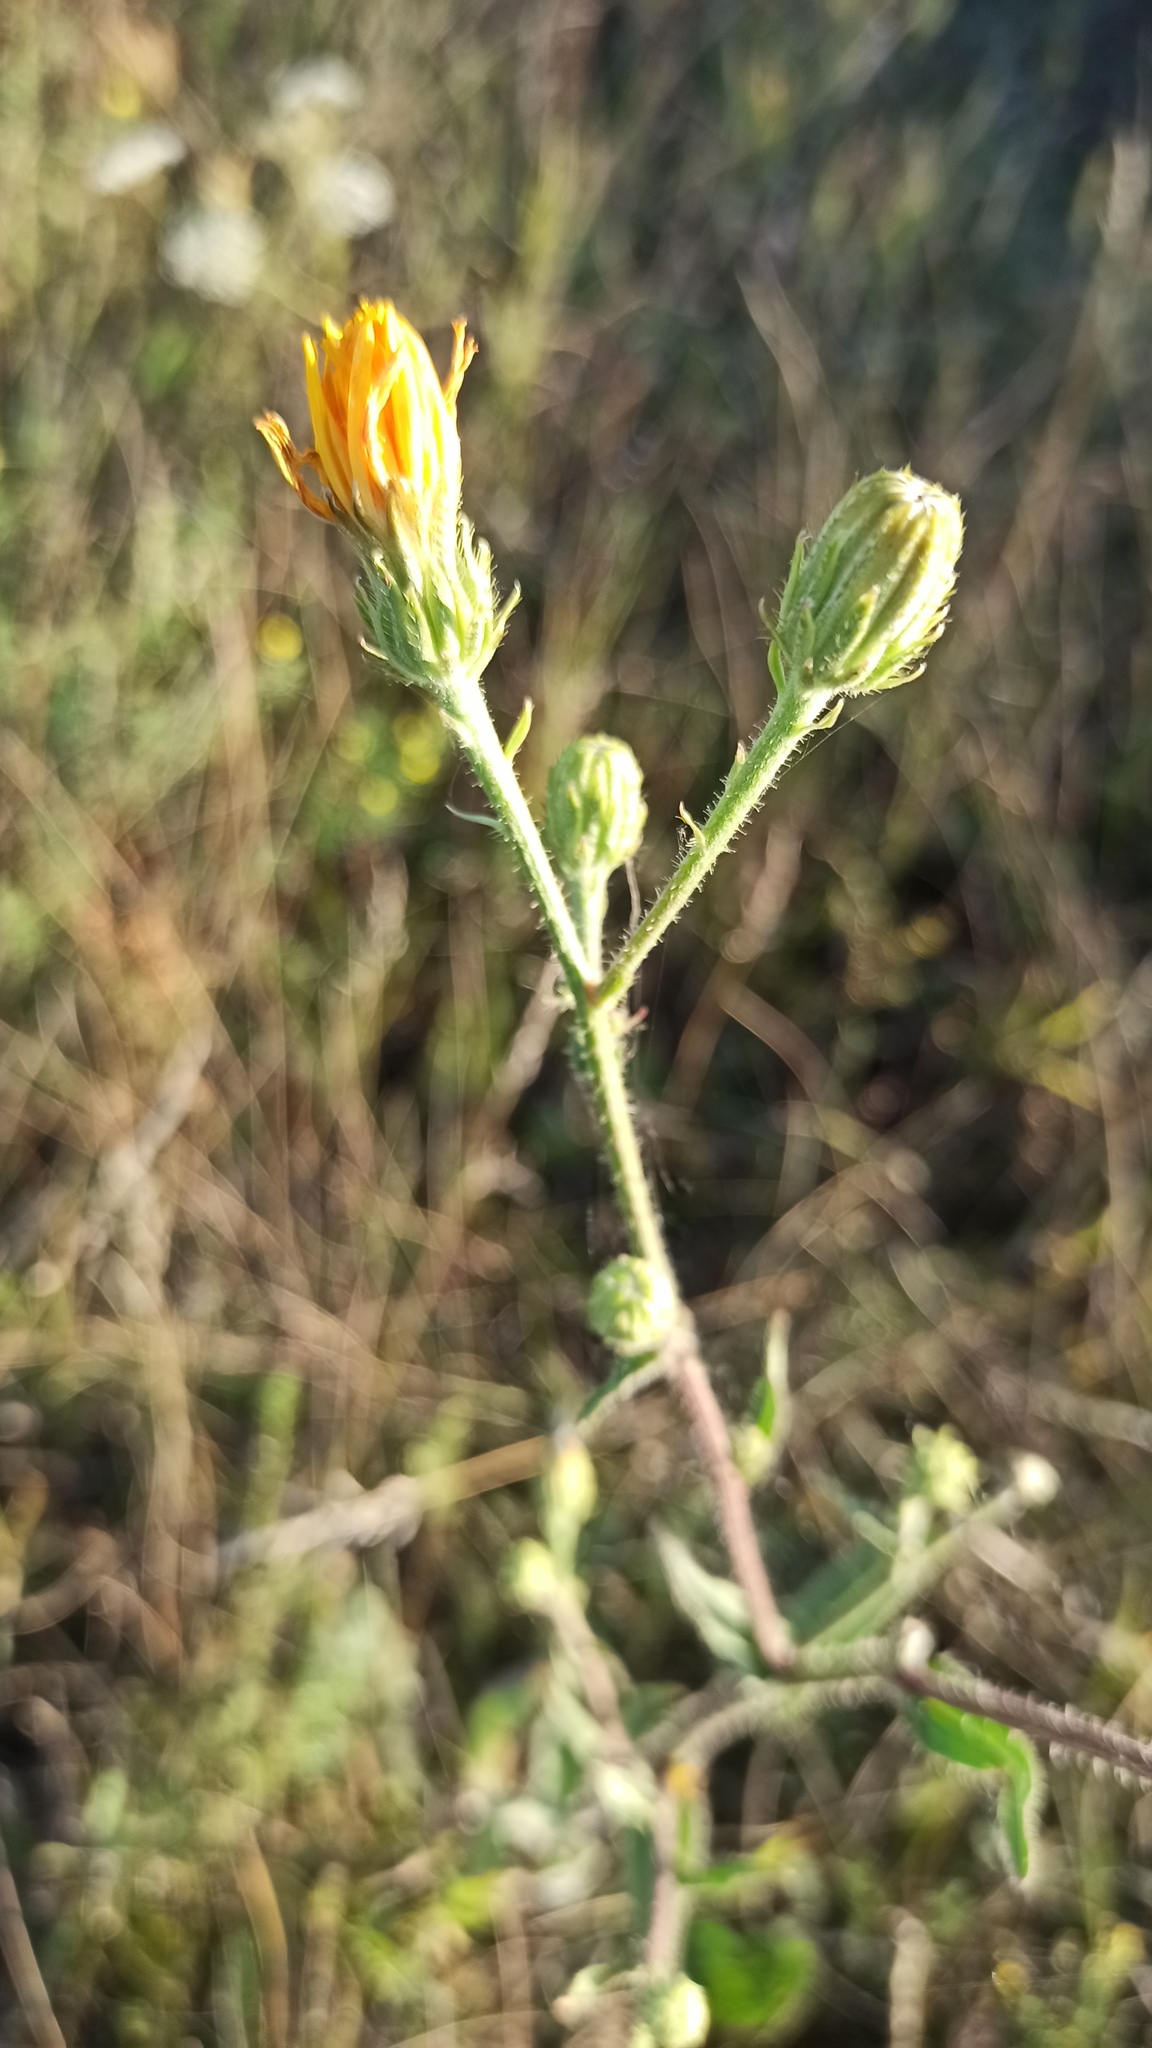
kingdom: Plantae
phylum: Tracheophyta
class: Magnoliopsida
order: Asterales
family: Asteraceae
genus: Picris
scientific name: Picris hieracioides
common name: Hawkweed oxtongue
